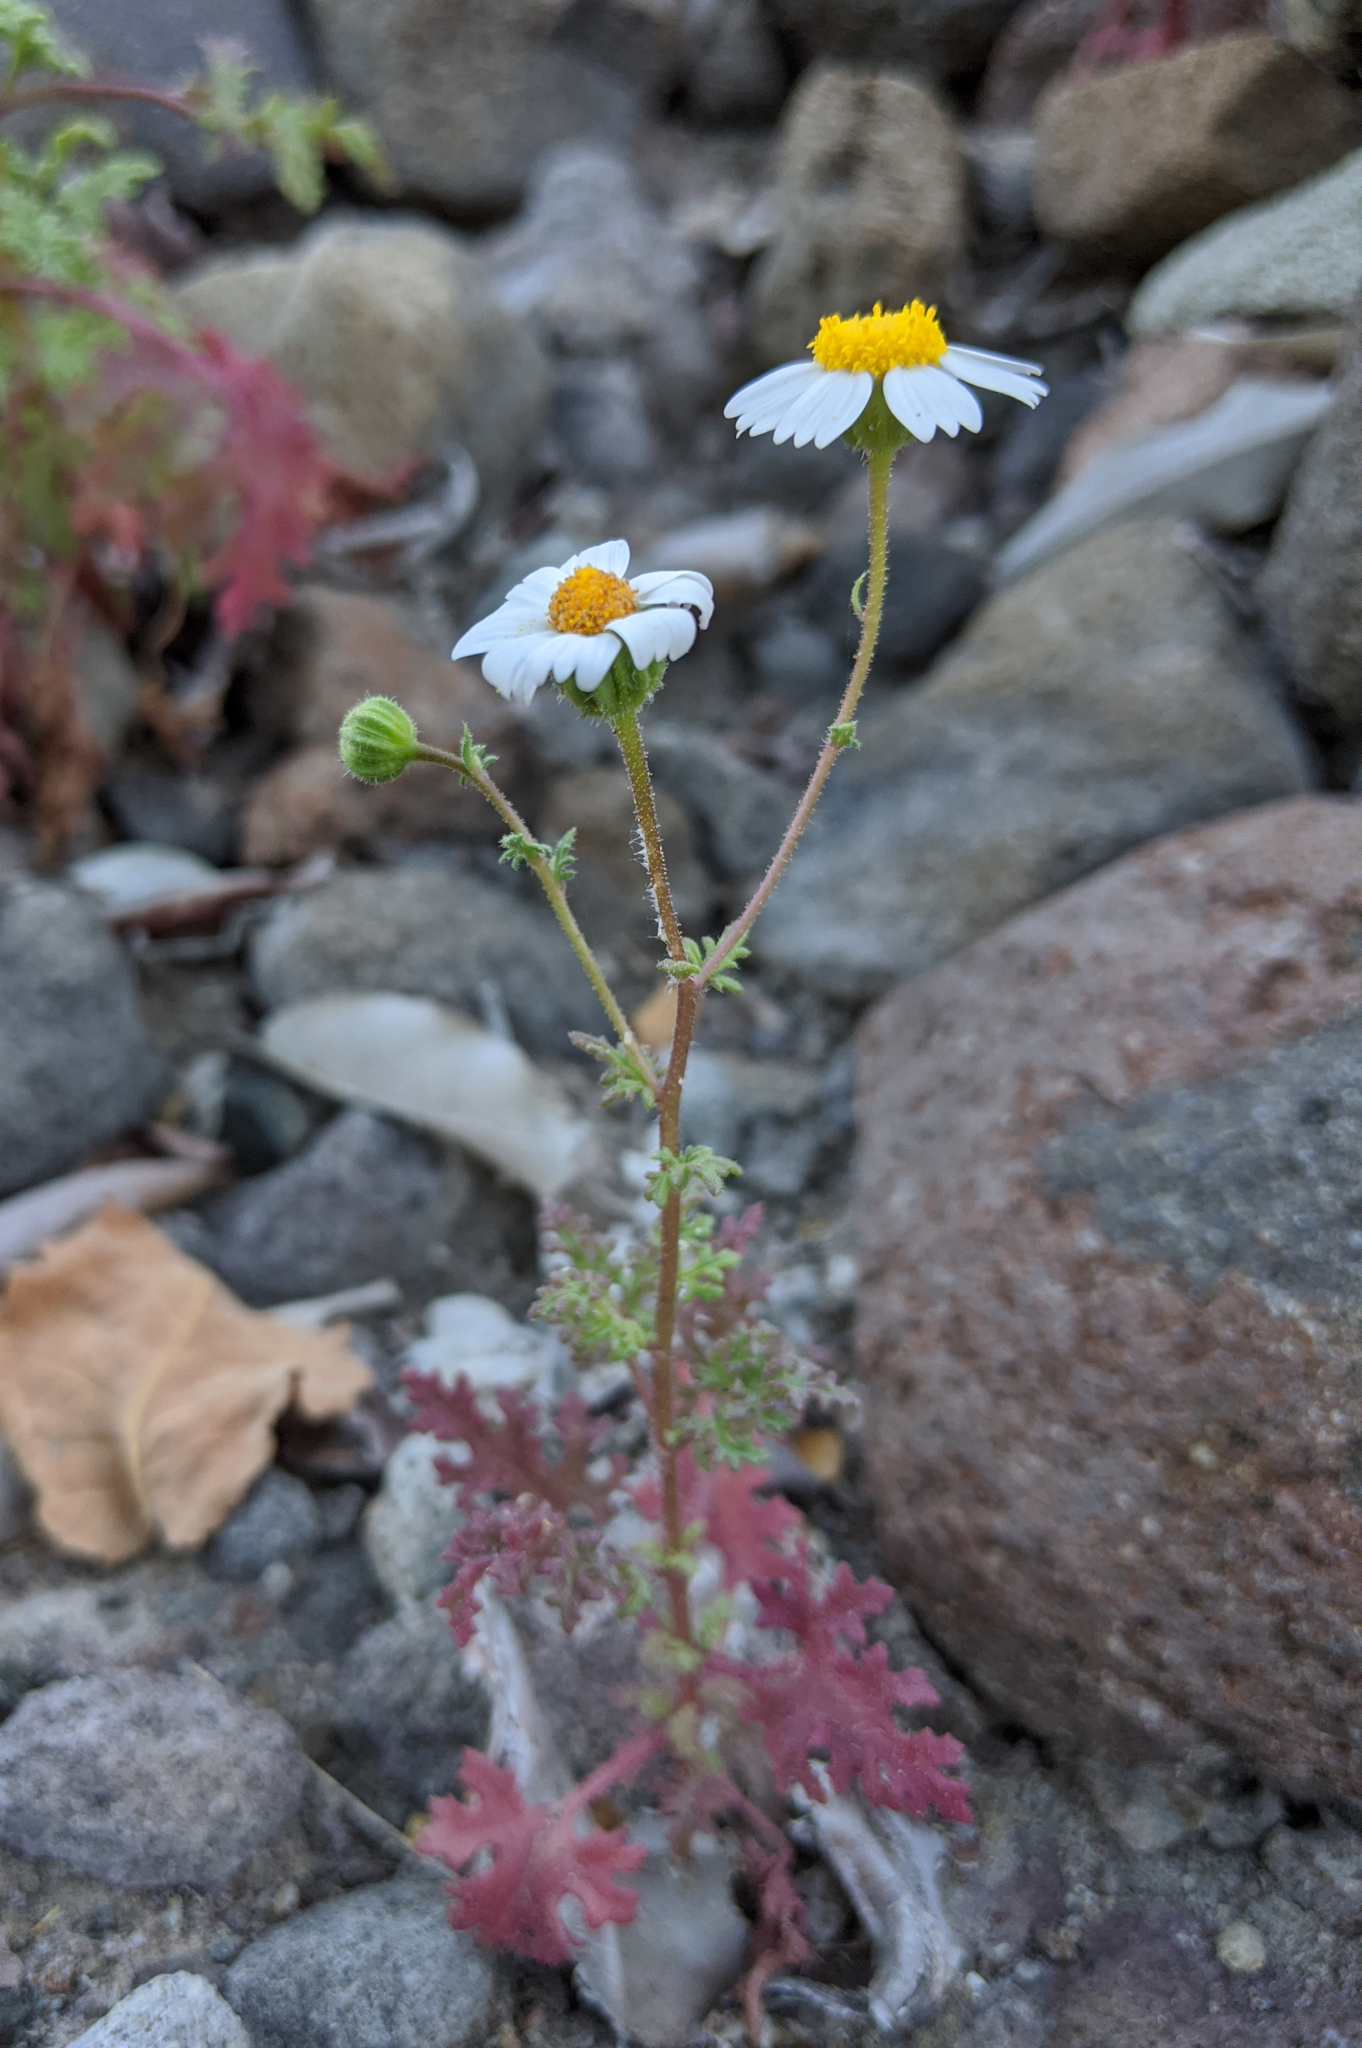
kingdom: Plantae
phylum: Tracheophyta
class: Magnoliopsida
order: Asterales
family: Asteraceae
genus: Perityle
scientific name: Perityle crassifolia
